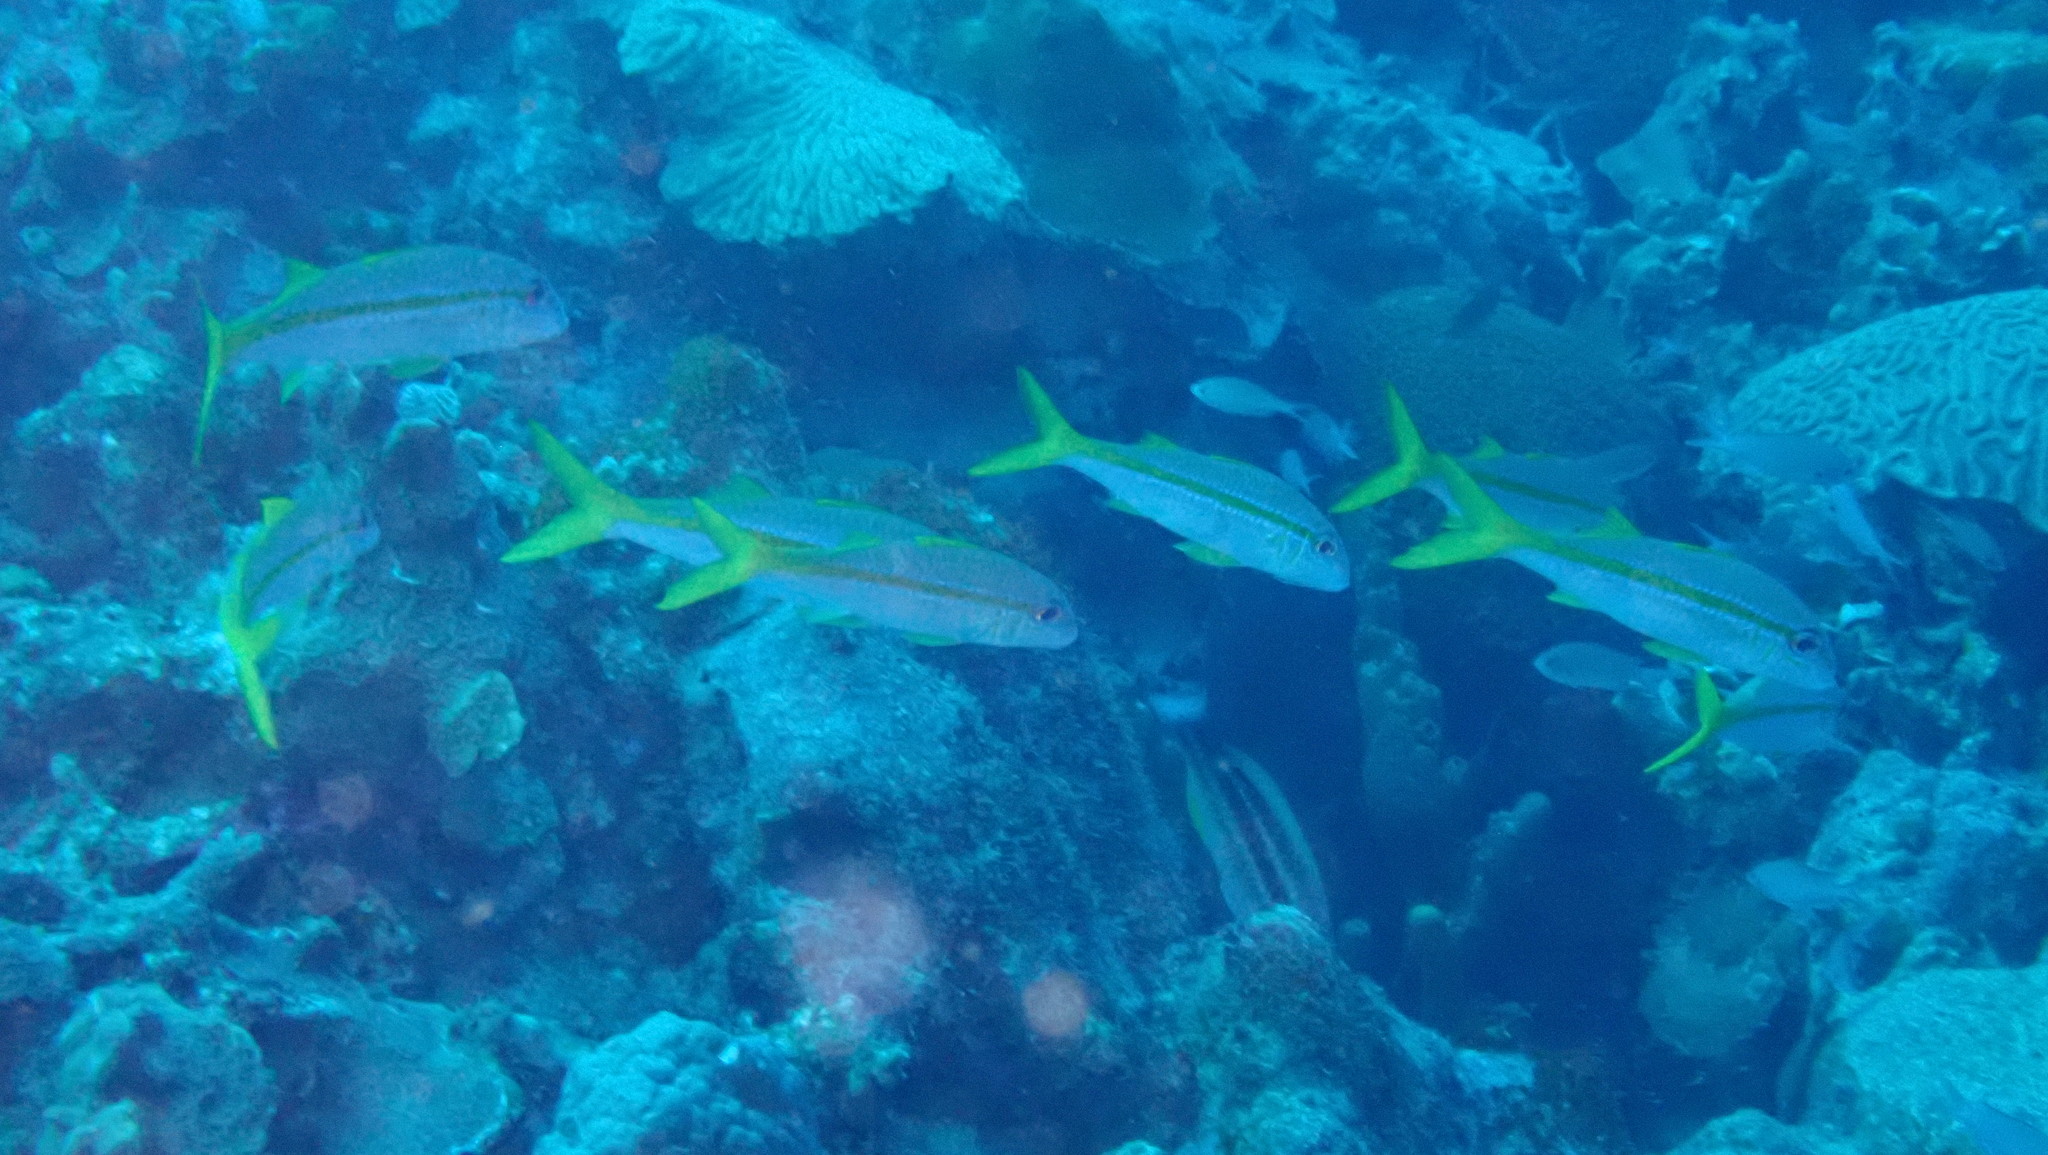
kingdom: Animalia
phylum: Chordata
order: Perciformes
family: Mullidae
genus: Mulloidichthys
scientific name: Mulloidichthys martinicus
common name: Yellow goatfish
